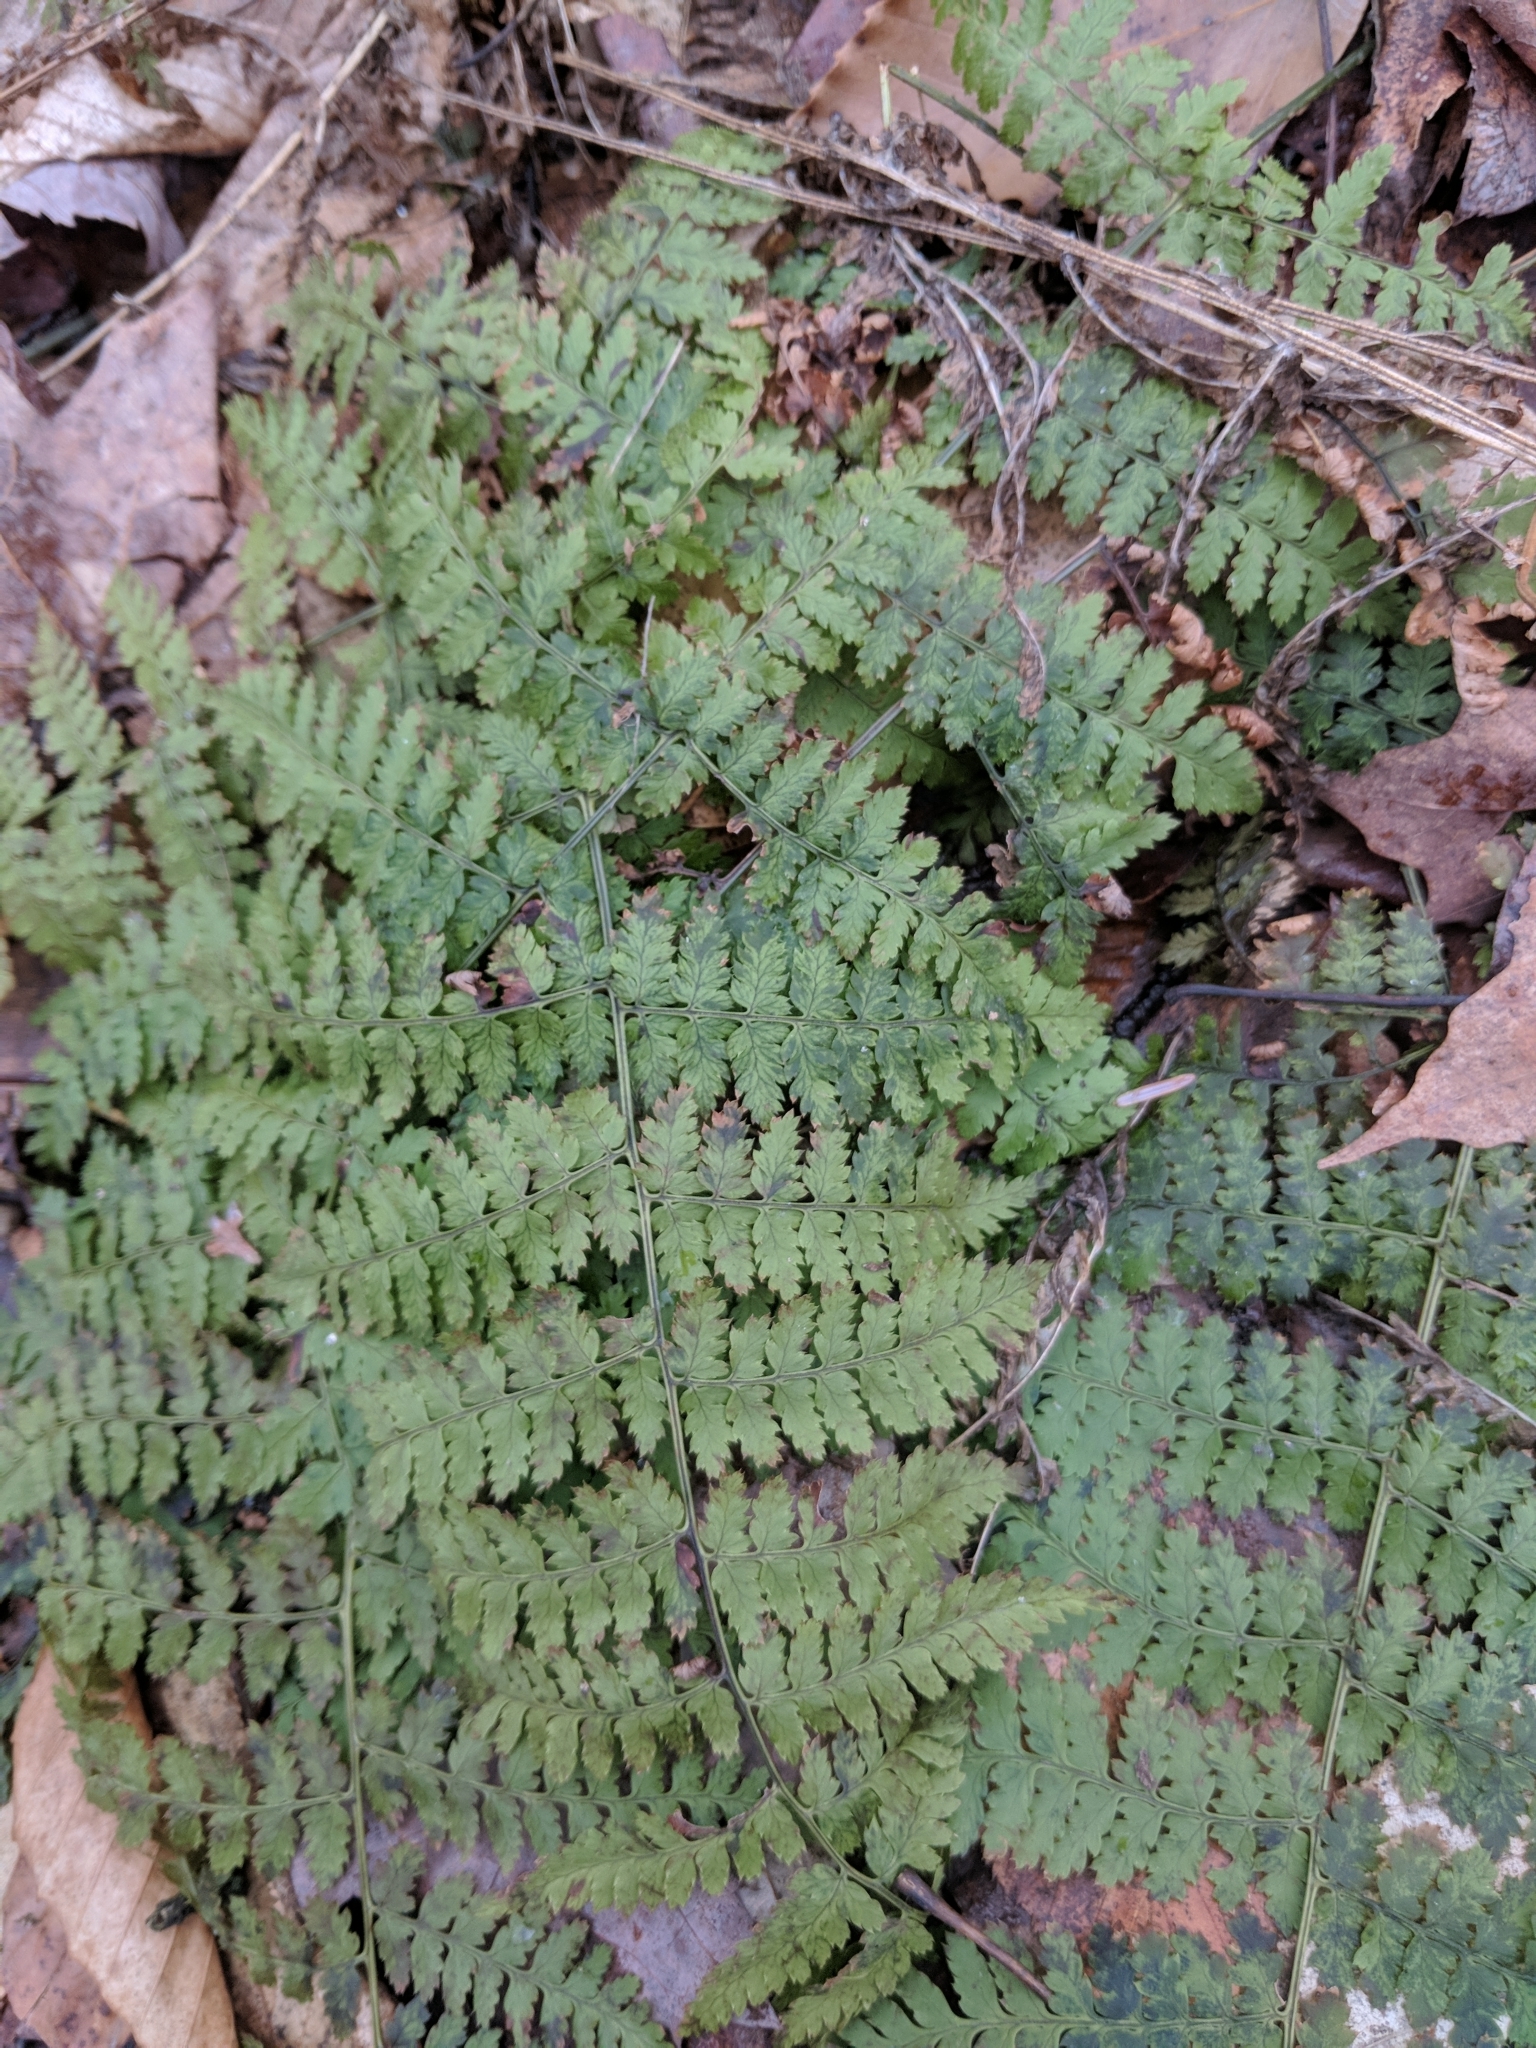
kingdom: Plantae
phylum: Tracheophyta
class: Polypodiopsida
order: Polypodiales
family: Dryopteridaceae
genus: Dryopteris
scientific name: Dryopteris intermedia
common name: Evergreen wood fern
